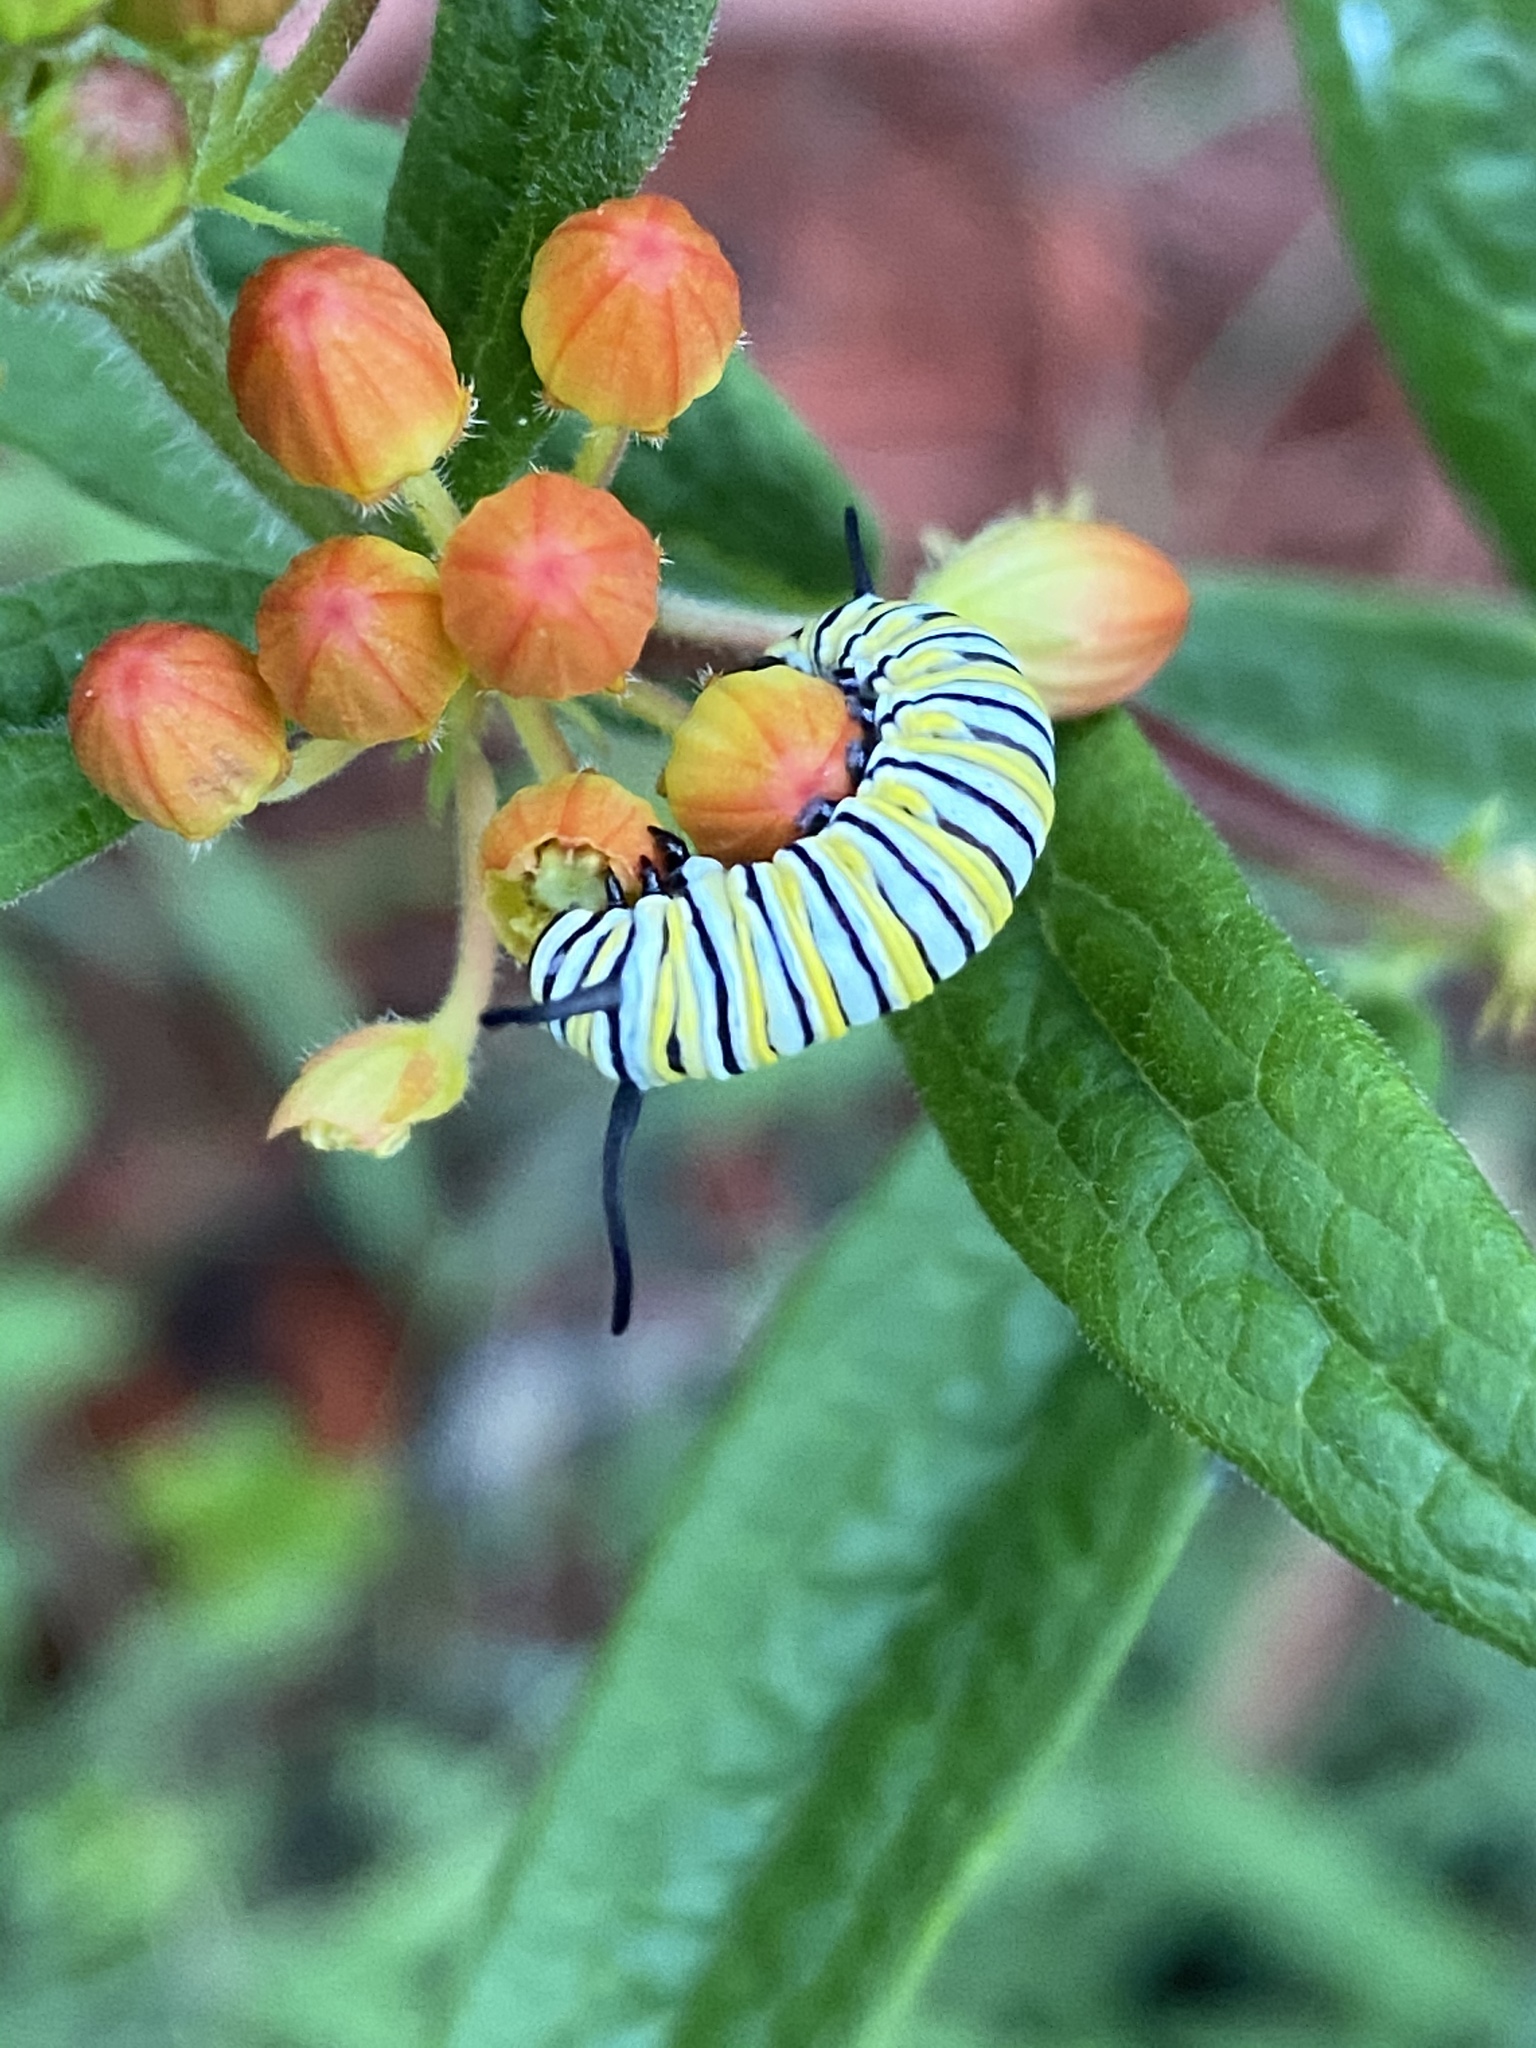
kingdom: Animalia
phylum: Arthropoda
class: Insecta
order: Lepidoptera
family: Nymphalidae
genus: Danaus
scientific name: Danaus plexippus
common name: Monarch
